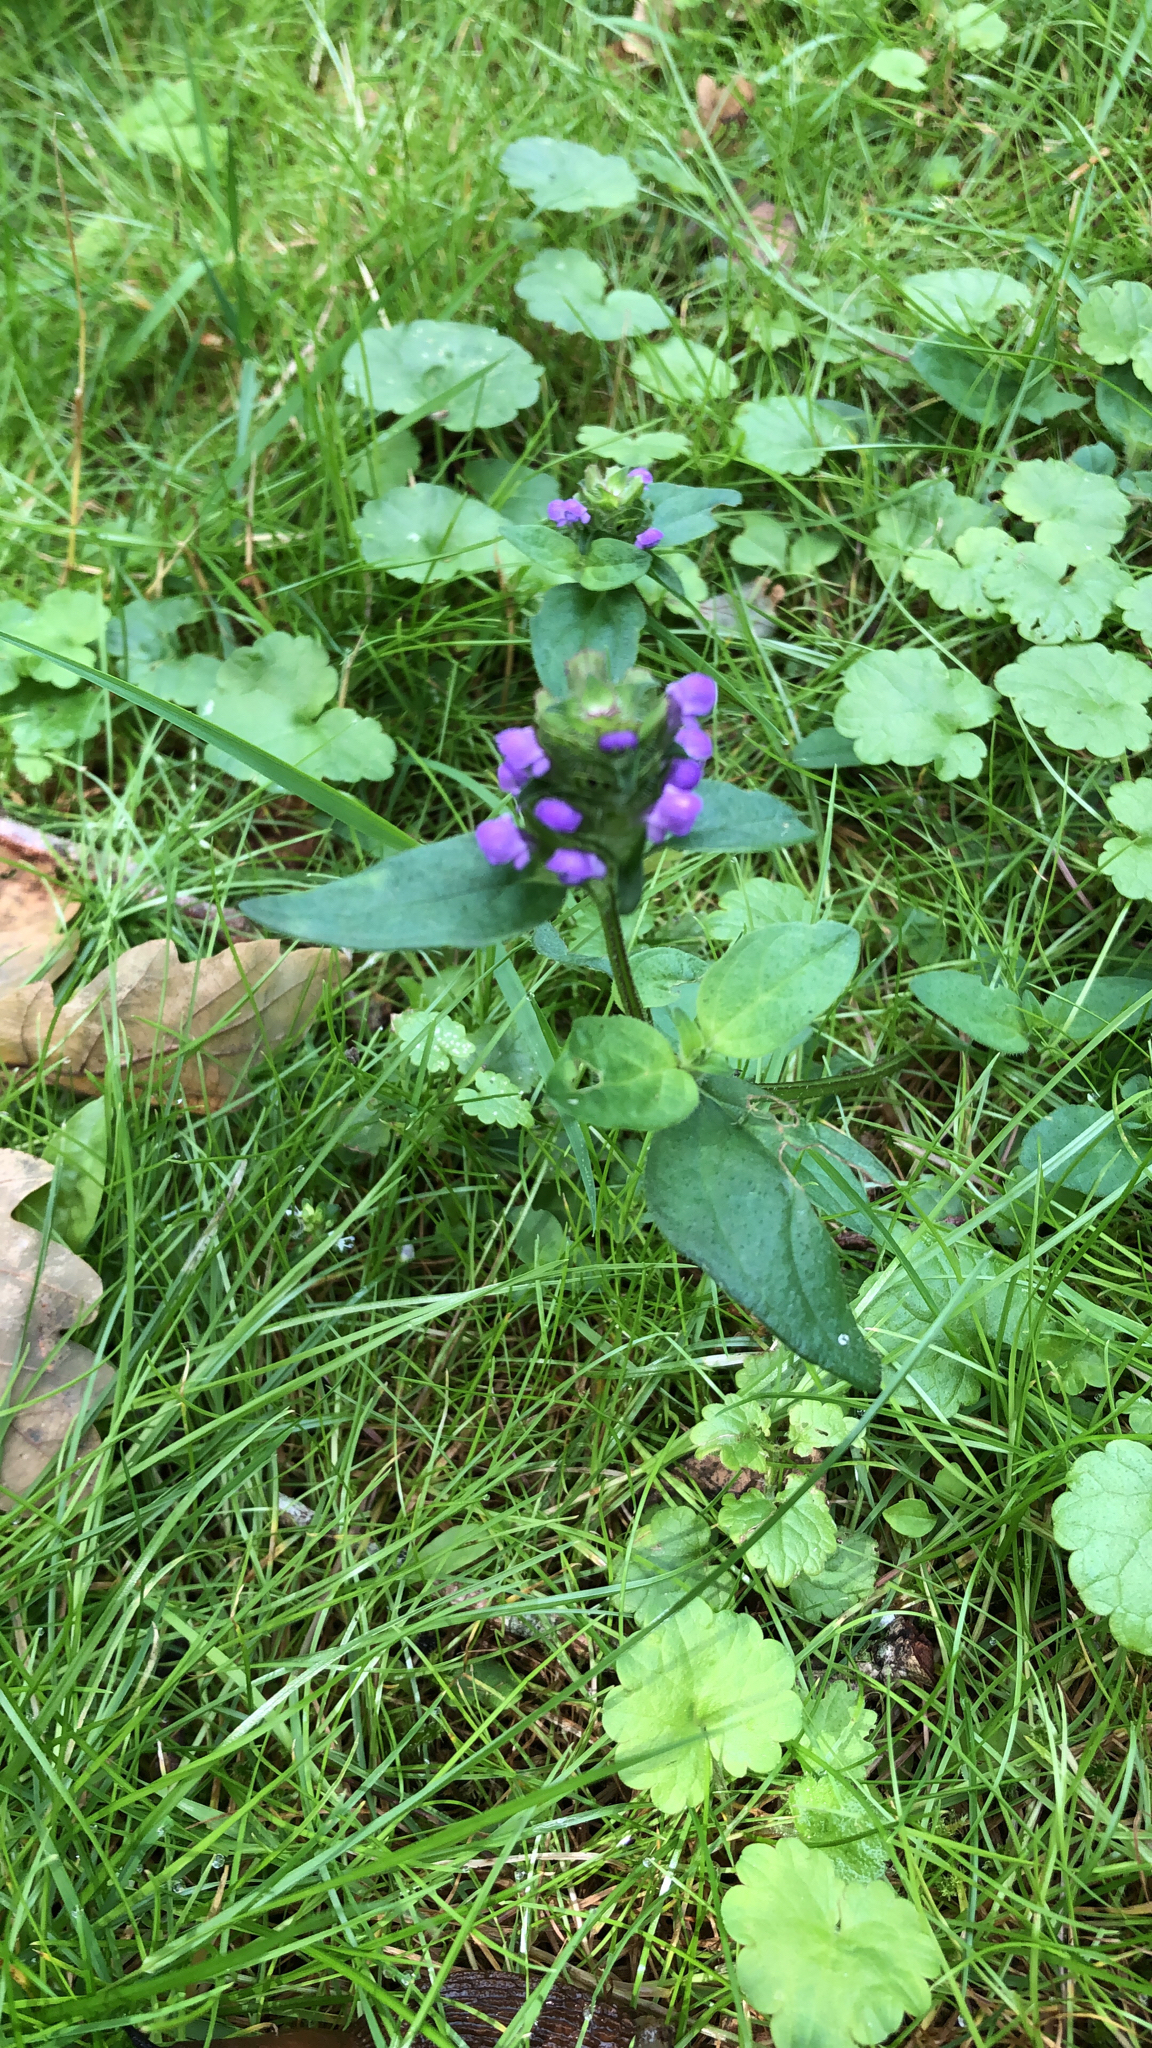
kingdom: Plantae
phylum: Tracheophyta
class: Magnoliopsida
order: Lamiales
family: Lamiaceae
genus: Prunella
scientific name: Prunella vulgaris
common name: Heal-all
